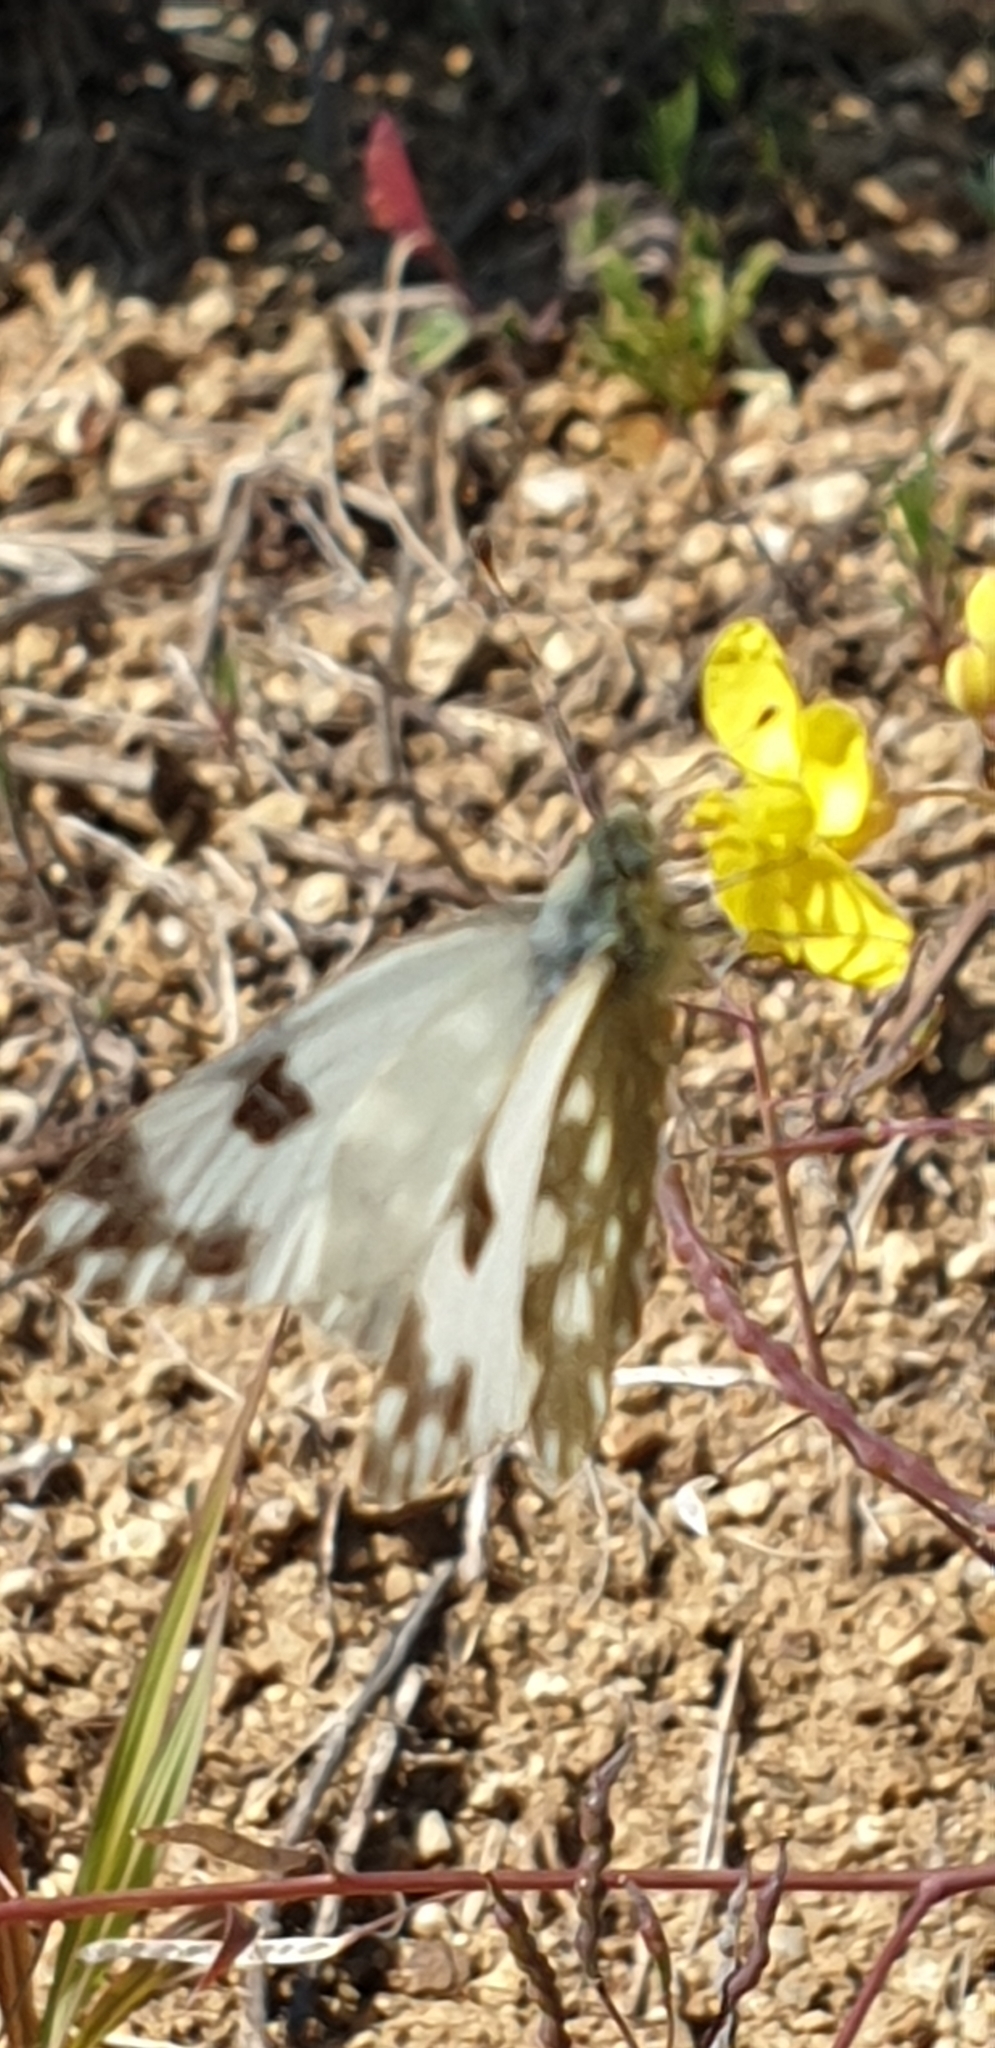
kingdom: Animalia
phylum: Arthropoda
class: Insecta
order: Lepidoptera
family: Pieridae
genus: Pontia
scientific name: Pontia daplidice
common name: Bath white
